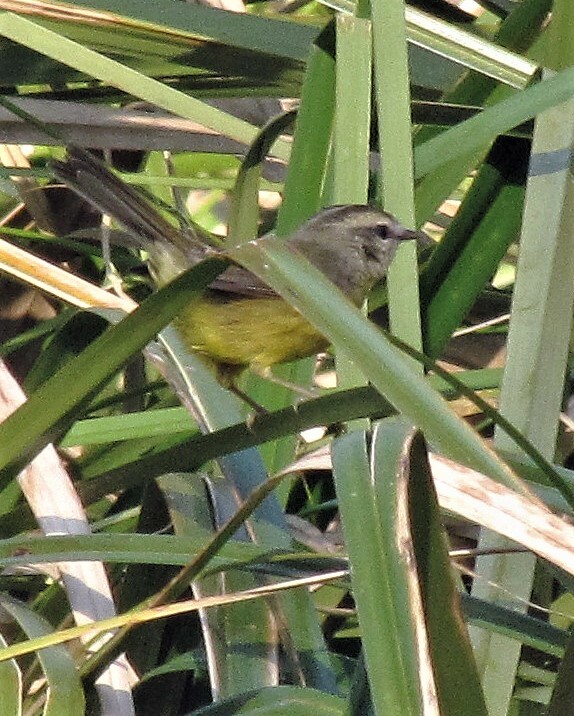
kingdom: Animalia
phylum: Chordata
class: Aves
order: Passeriformes
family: Parulidae
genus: Basileuterus
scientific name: Basileuterus culicivorus
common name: Golden-crowned warbler
